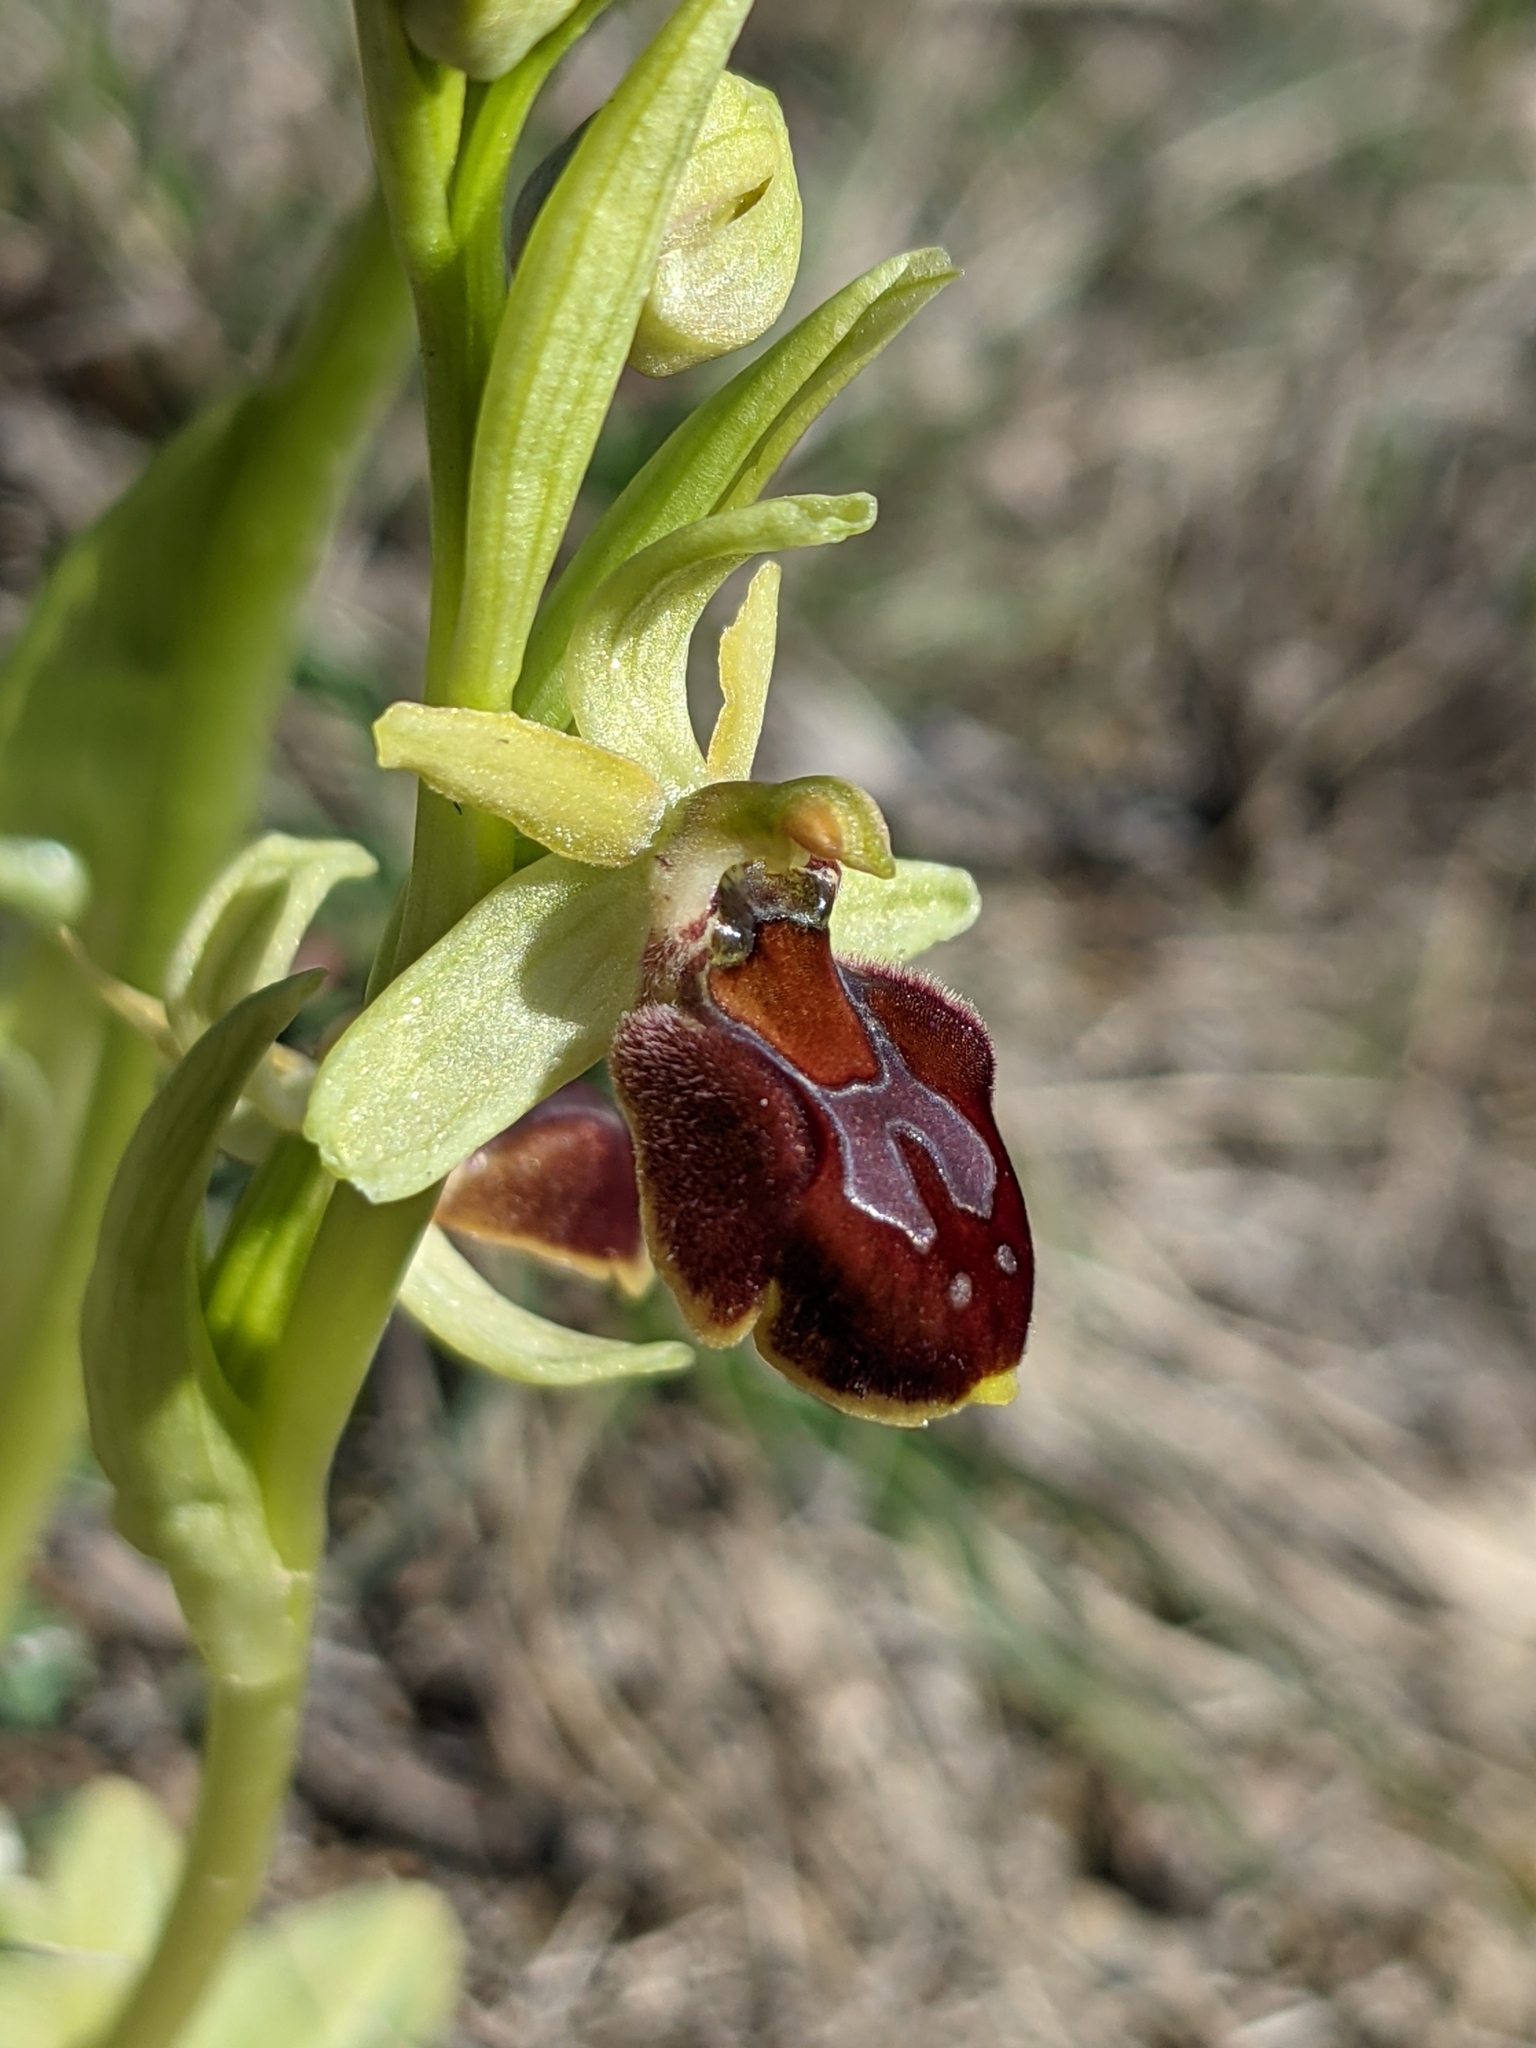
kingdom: Plantae
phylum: Tracheophyta
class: Liliopsida
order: Asparagales
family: Orchidaceae
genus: Ophrys
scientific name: Ophrys sphegodes
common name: Early spider-orchid
